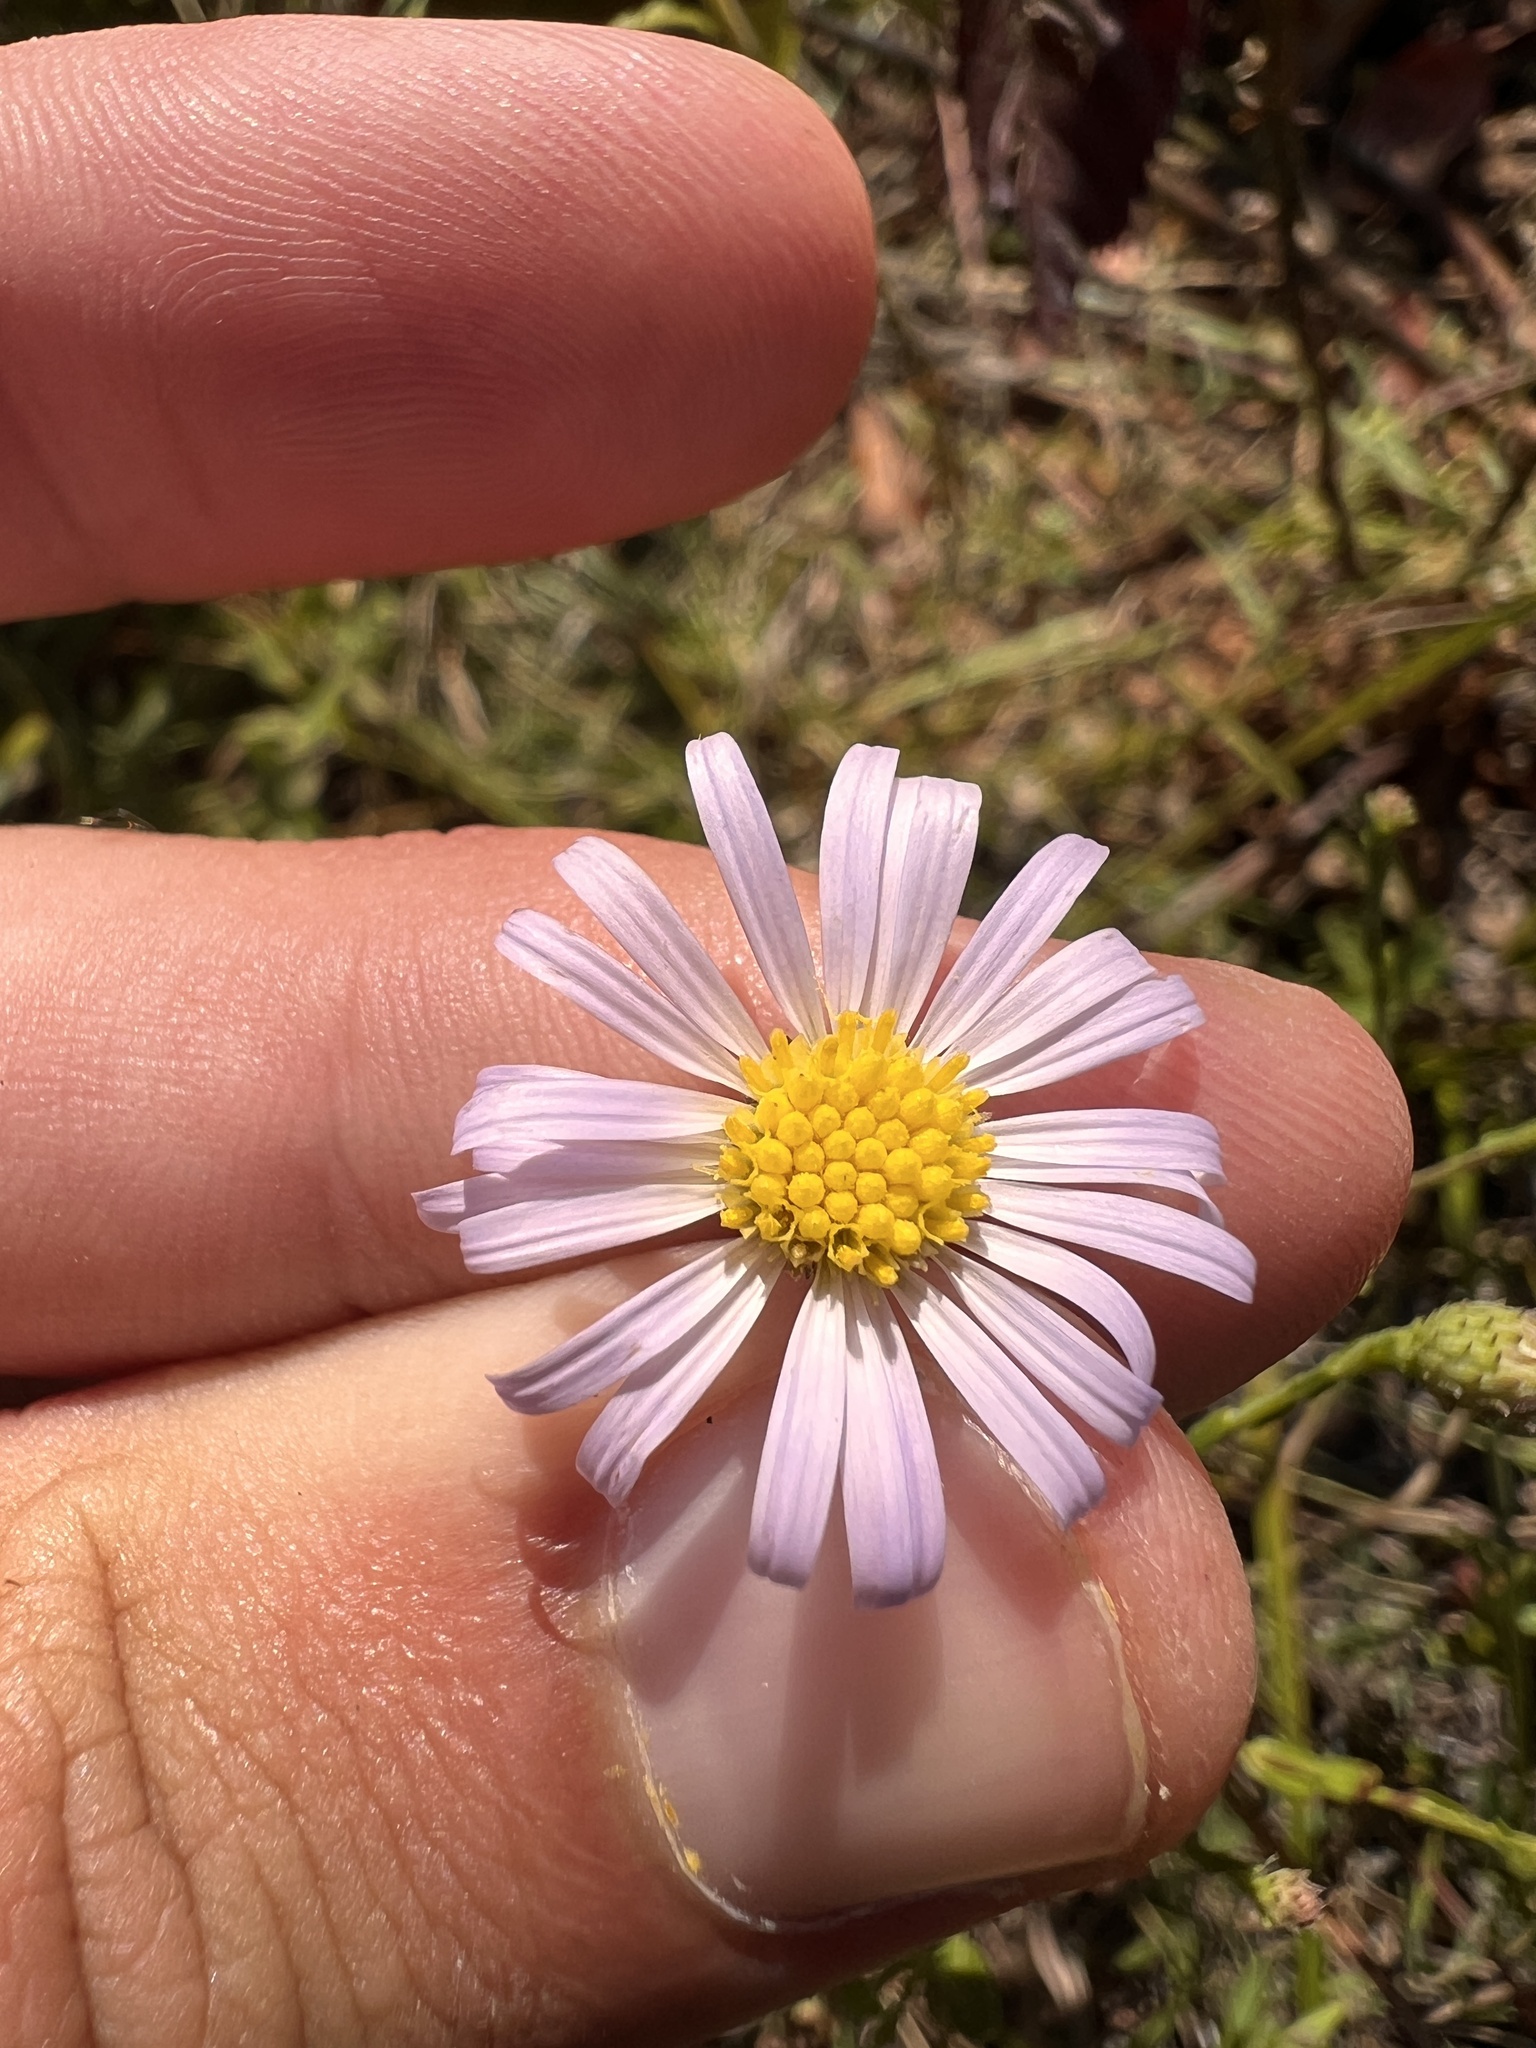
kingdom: Plantae
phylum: Tracheophyta
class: Magnoliopsida
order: Asterales
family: Asteraceae
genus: Symphyotrichum
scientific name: Symphyotrichum patens
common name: Late purple aster
